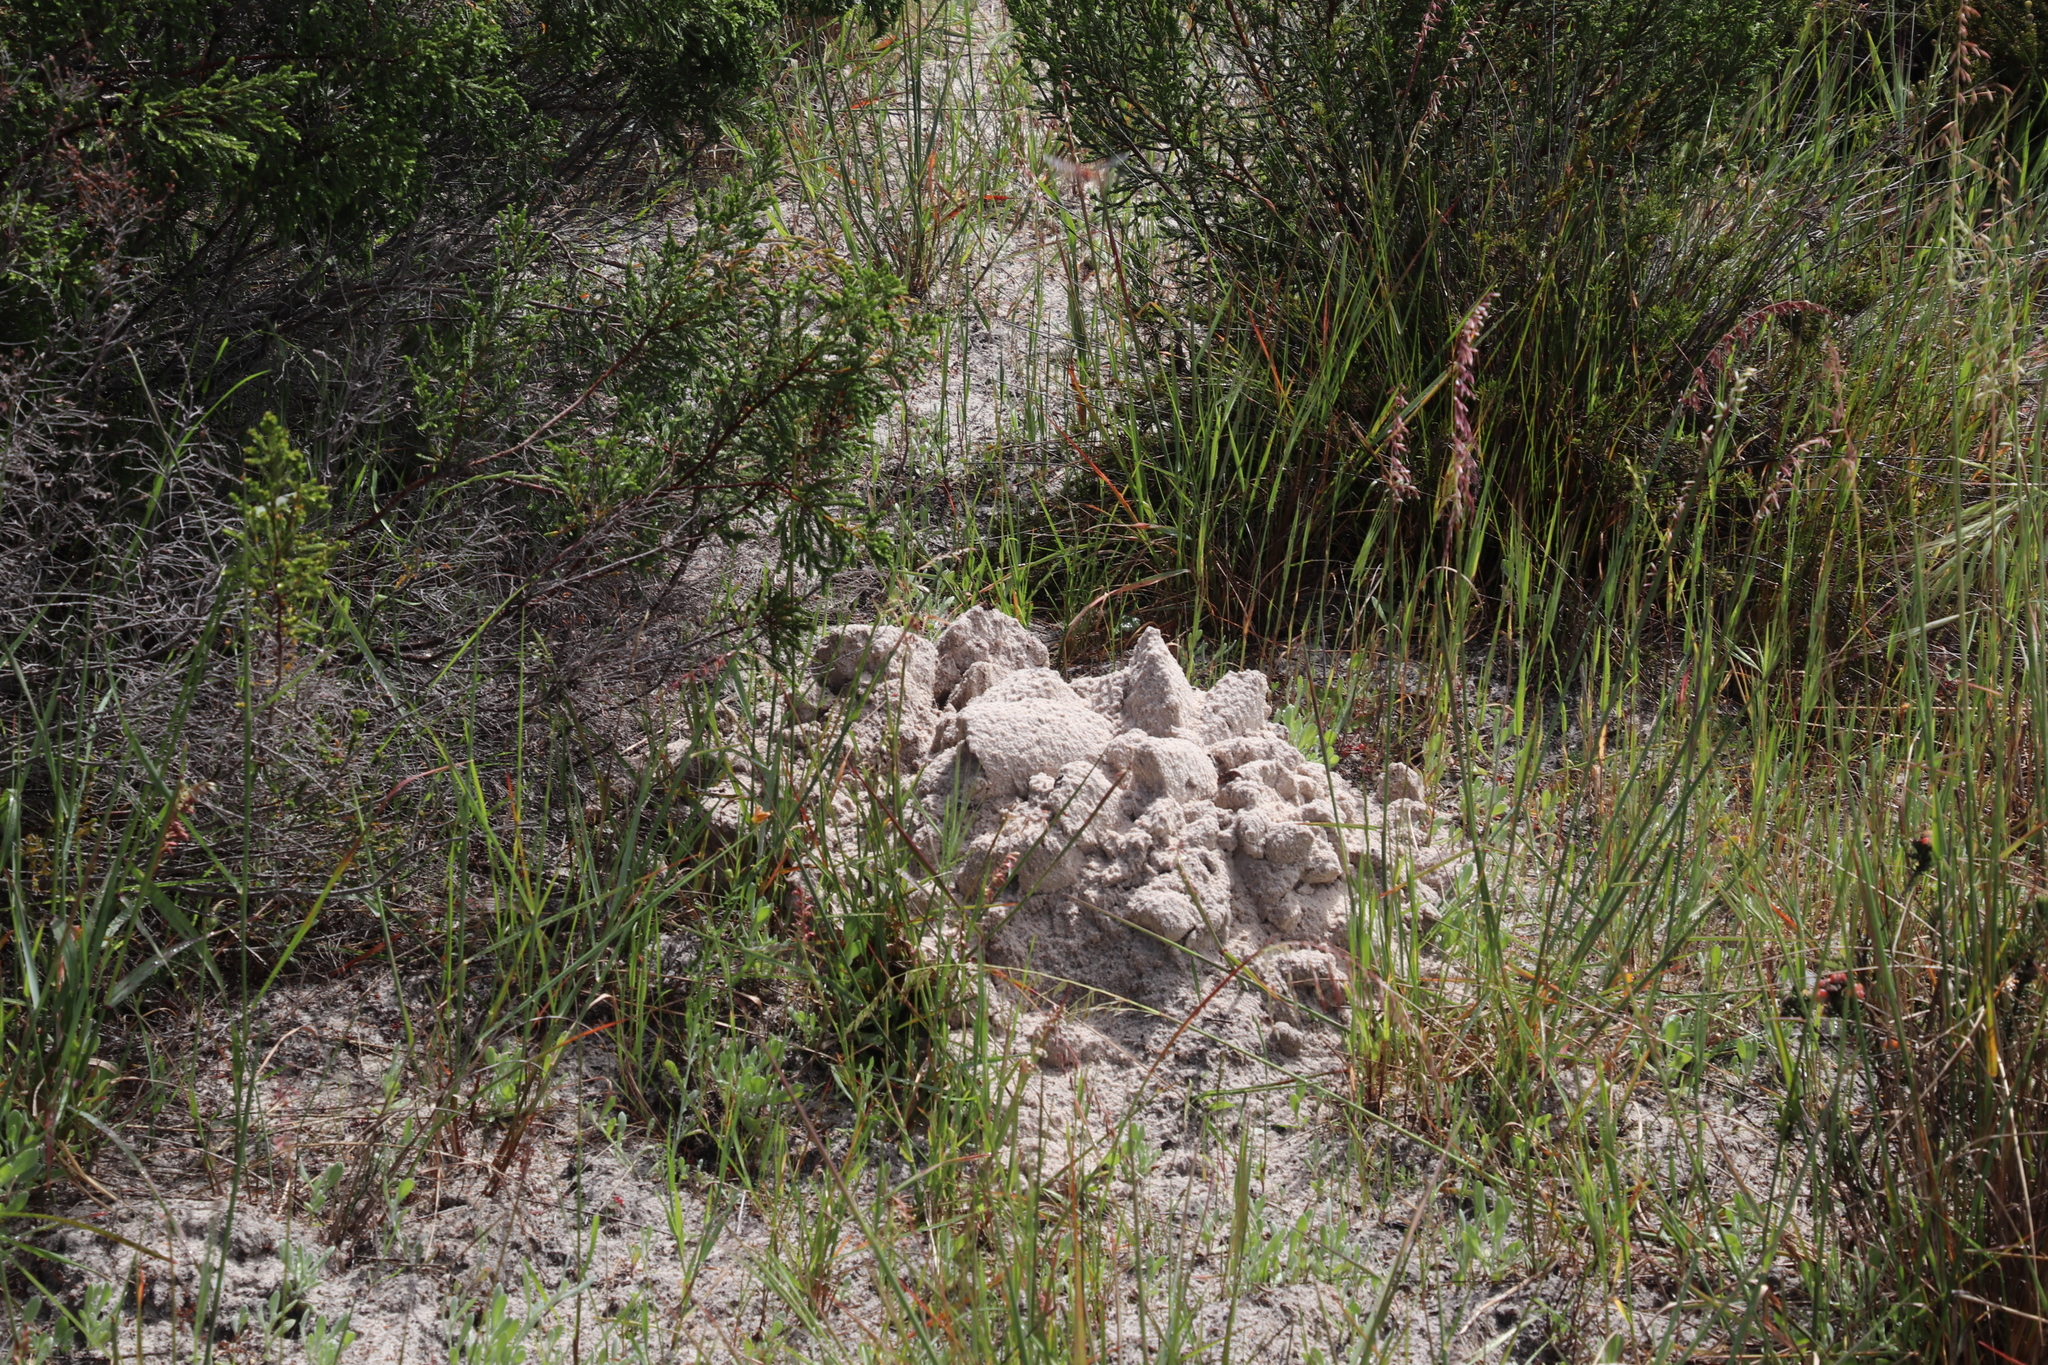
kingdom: Animalia
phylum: Chordata
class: Mammalia
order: Rodentia
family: Bathyergidae
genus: Bathyergus
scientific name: Bathyergus suillus
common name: Cape dune mole rat
